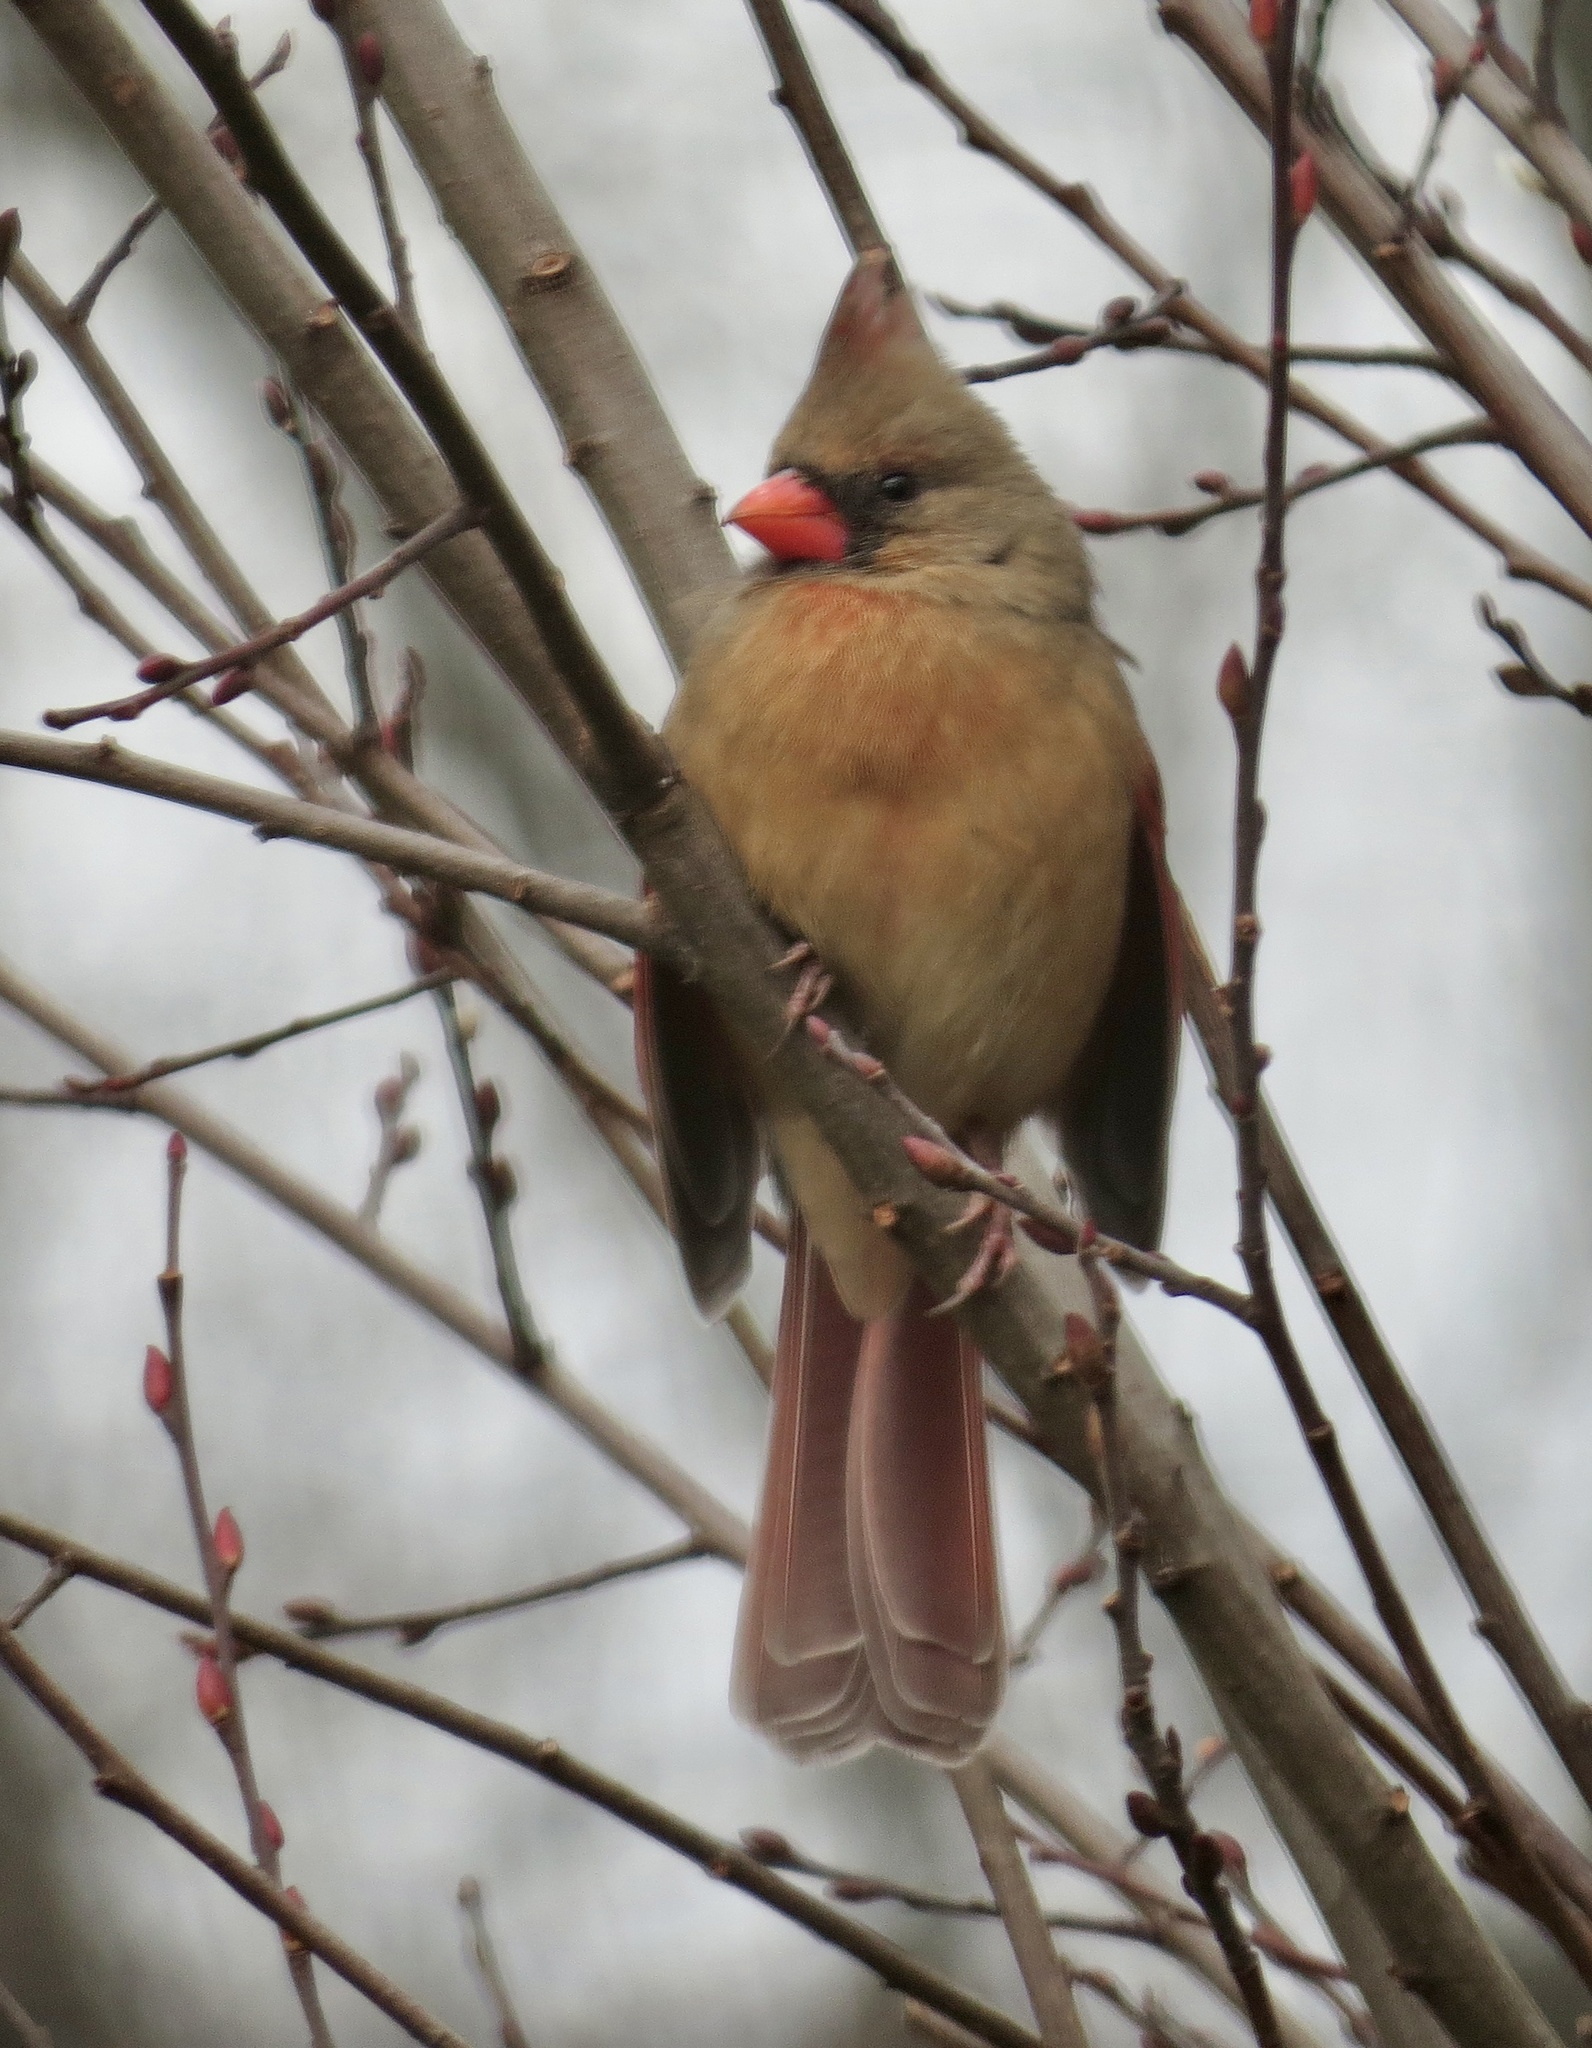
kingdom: Animalia
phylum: Chordata
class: Aves
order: Passeriformes
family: Cardinalidae
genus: Cardinalis
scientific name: Cardinalis cardinalis
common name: Northern cardinal
